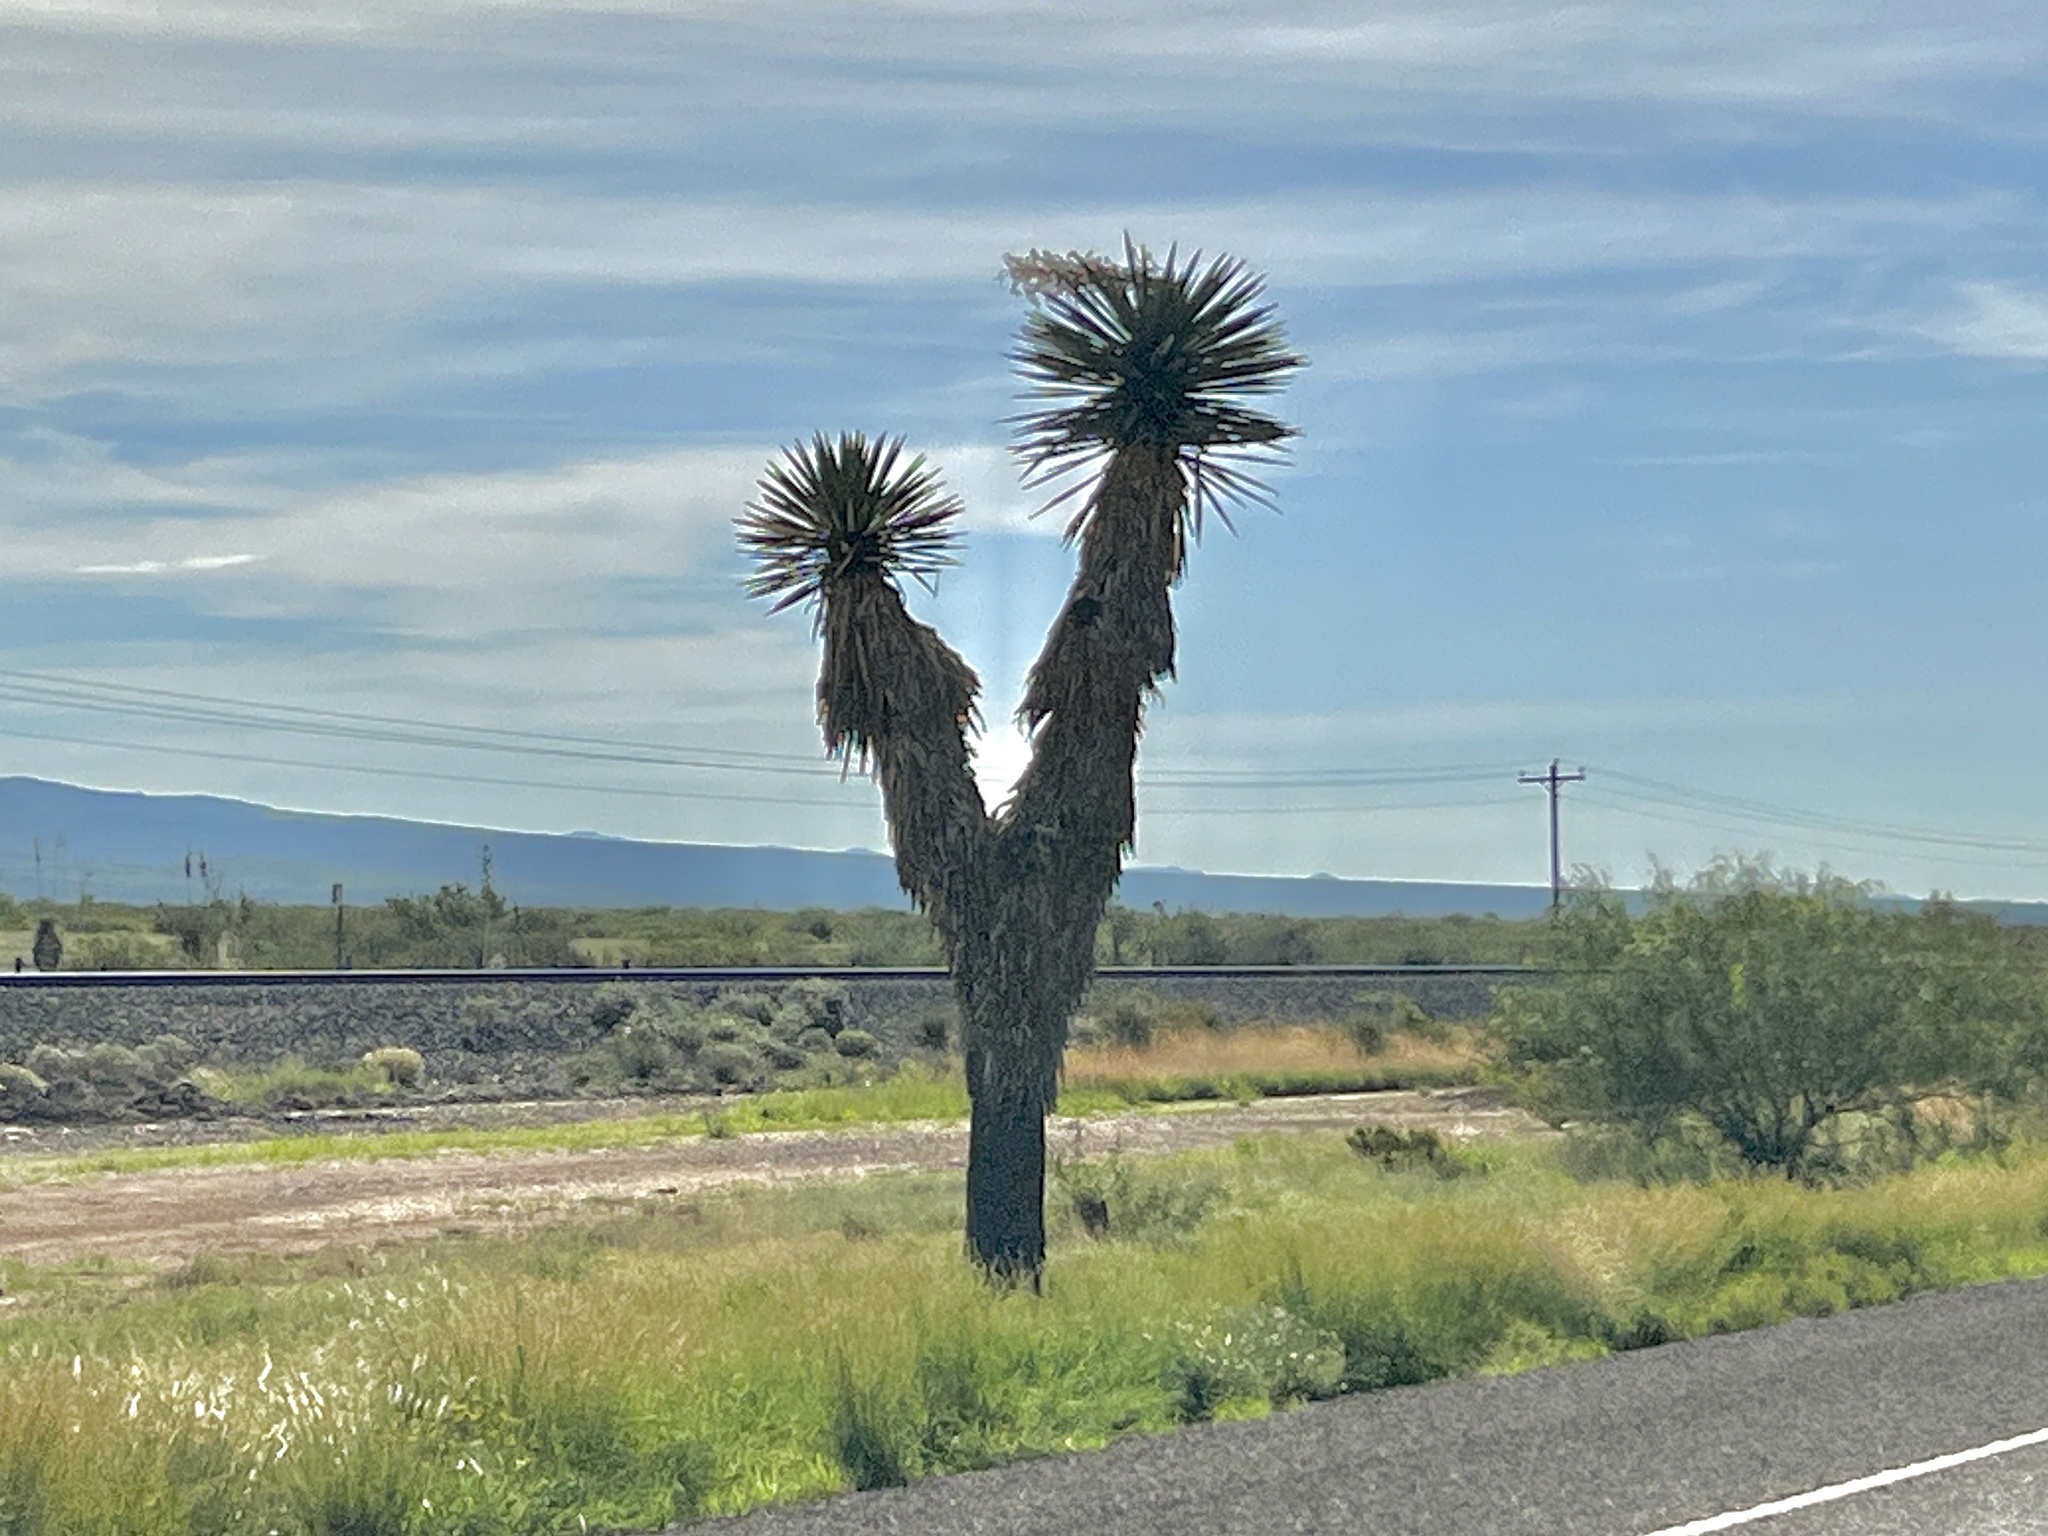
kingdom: Plantae
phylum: Tracheophyta
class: Liliopsida
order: Asparagales
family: Asparagaceae
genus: Yucca
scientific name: Yucca faxoniana
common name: Spanish dagger
